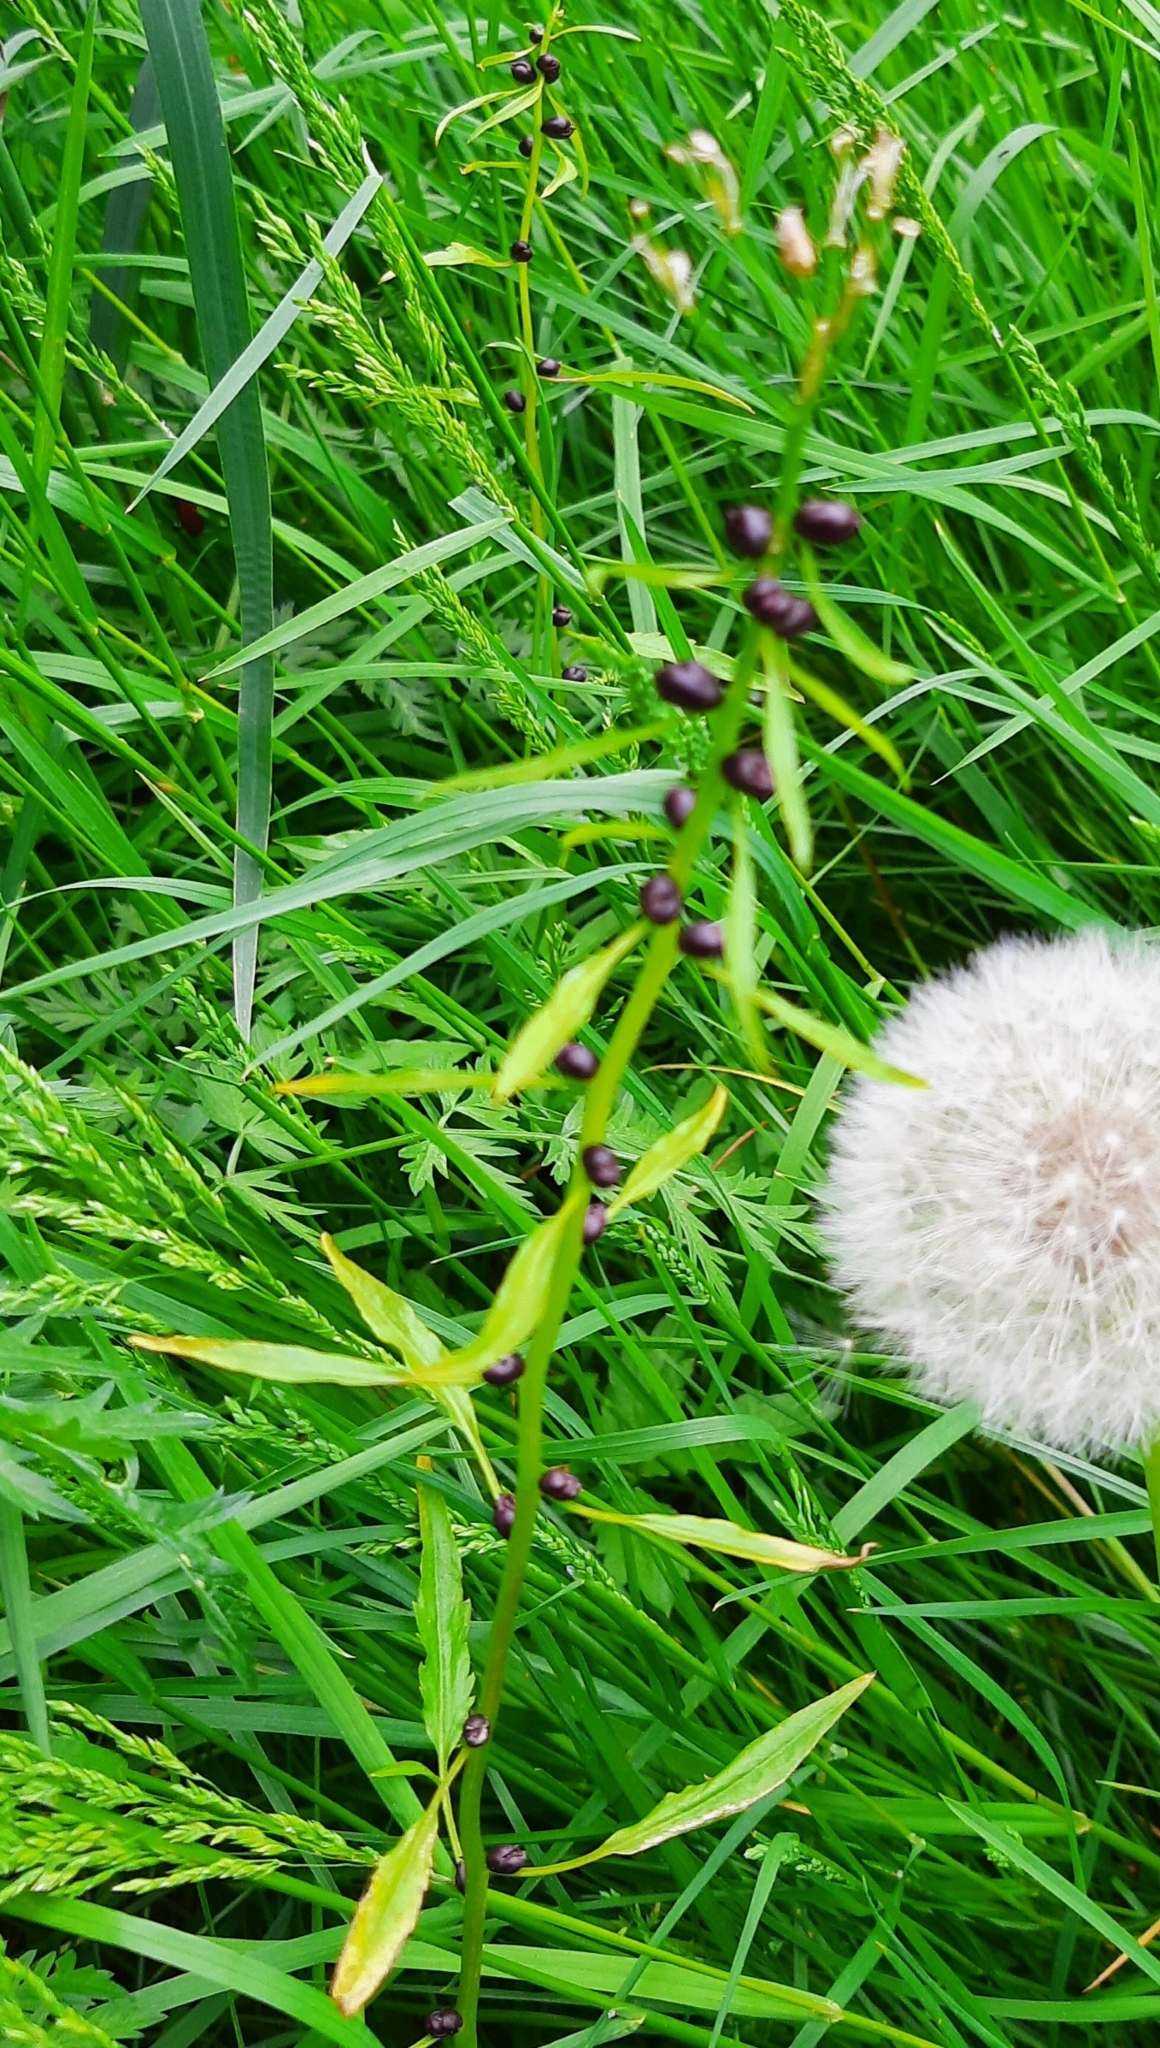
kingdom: Plantae
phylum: Tracheophyta
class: Magnoliopsida
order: Brassicales
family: Brassicaceae
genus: Cardamine
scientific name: Cardamine bulbifera
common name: Coralroot bittercress
